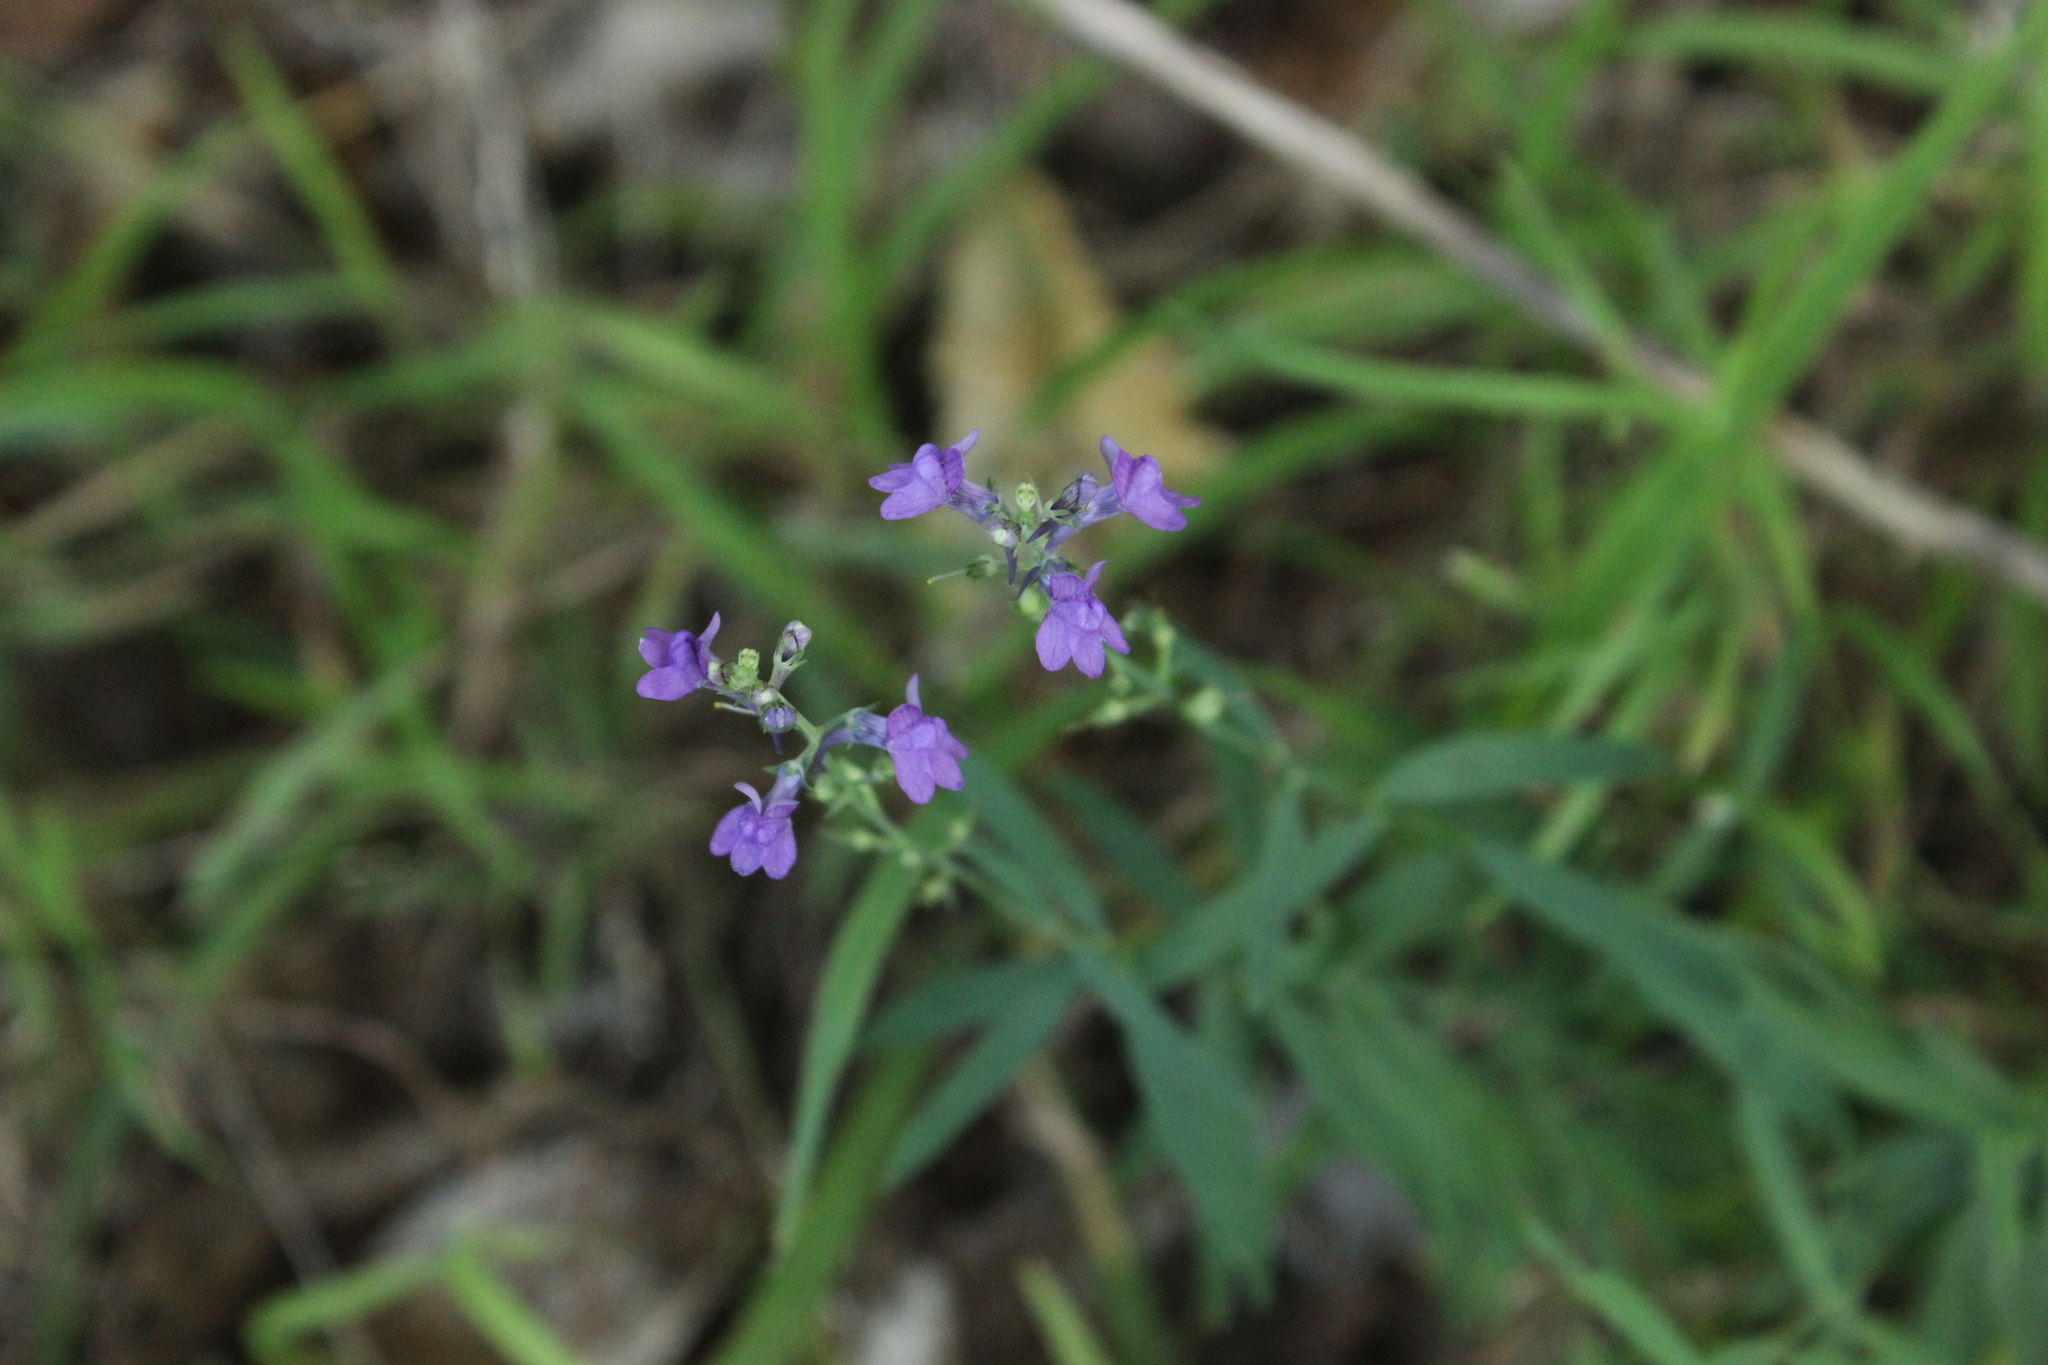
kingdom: Plantae
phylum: Tracheophyta
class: Magnoliopsida
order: Lamiales
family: Plantaginaceae
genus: Linaria
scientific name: Linaria purpurea
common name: Purple toadflax
